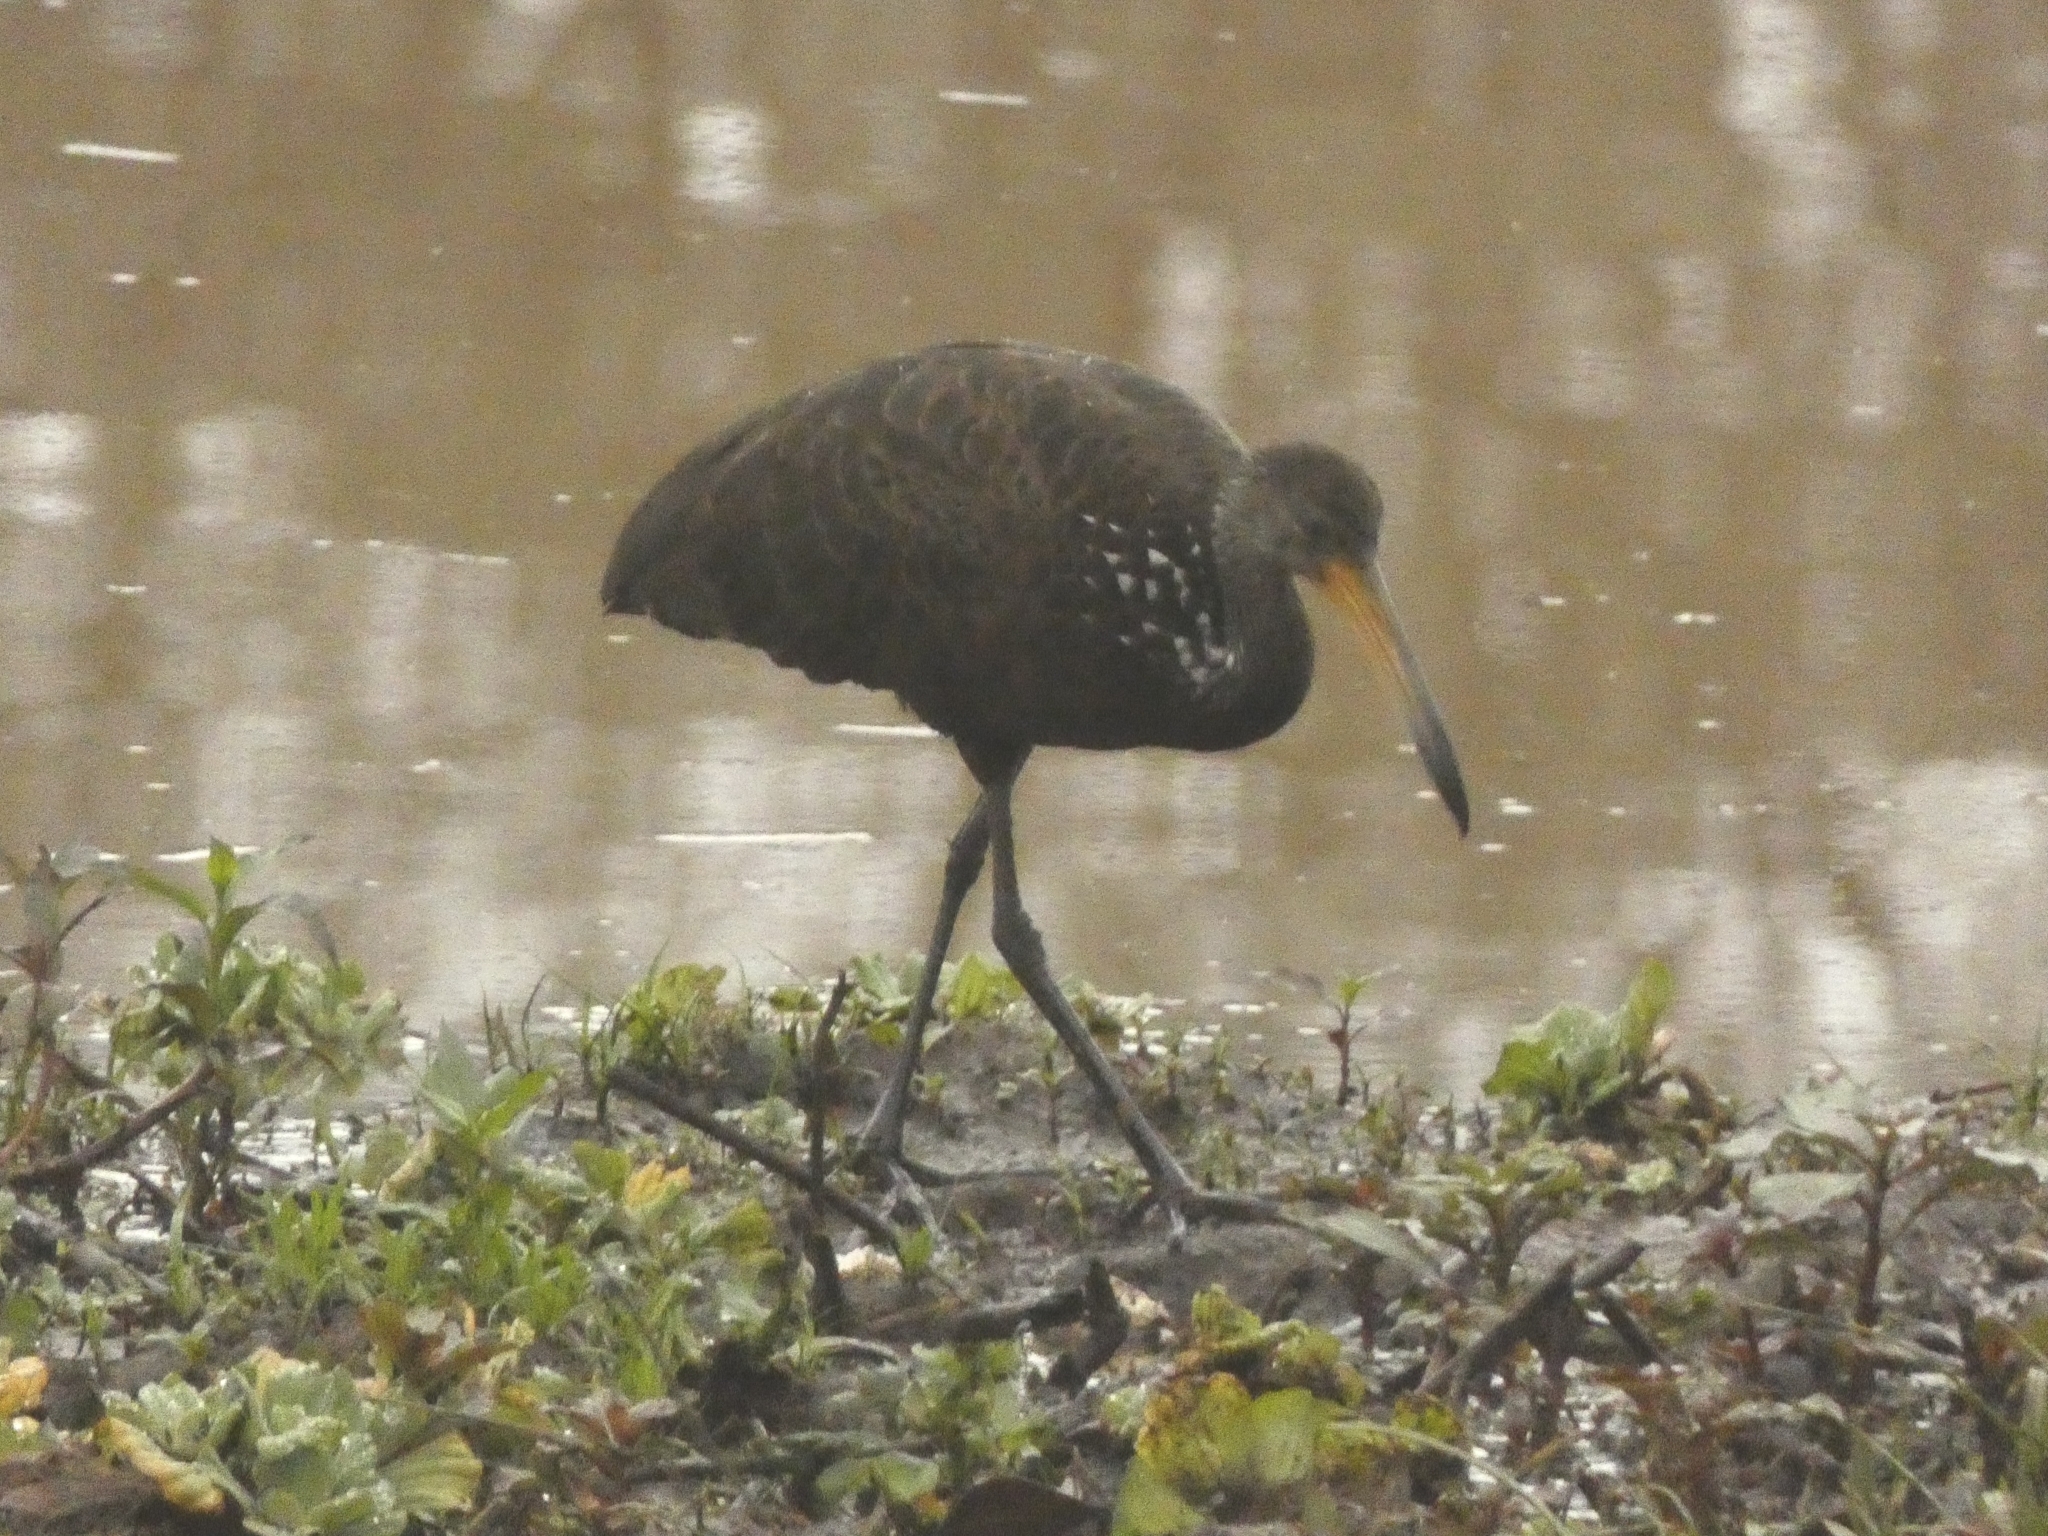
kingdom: Animalia
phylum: Chordata
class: Aves
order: Gruiformes
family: Aramidae
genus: Aramus
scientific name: Aramus guarauna
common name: Limpkin
